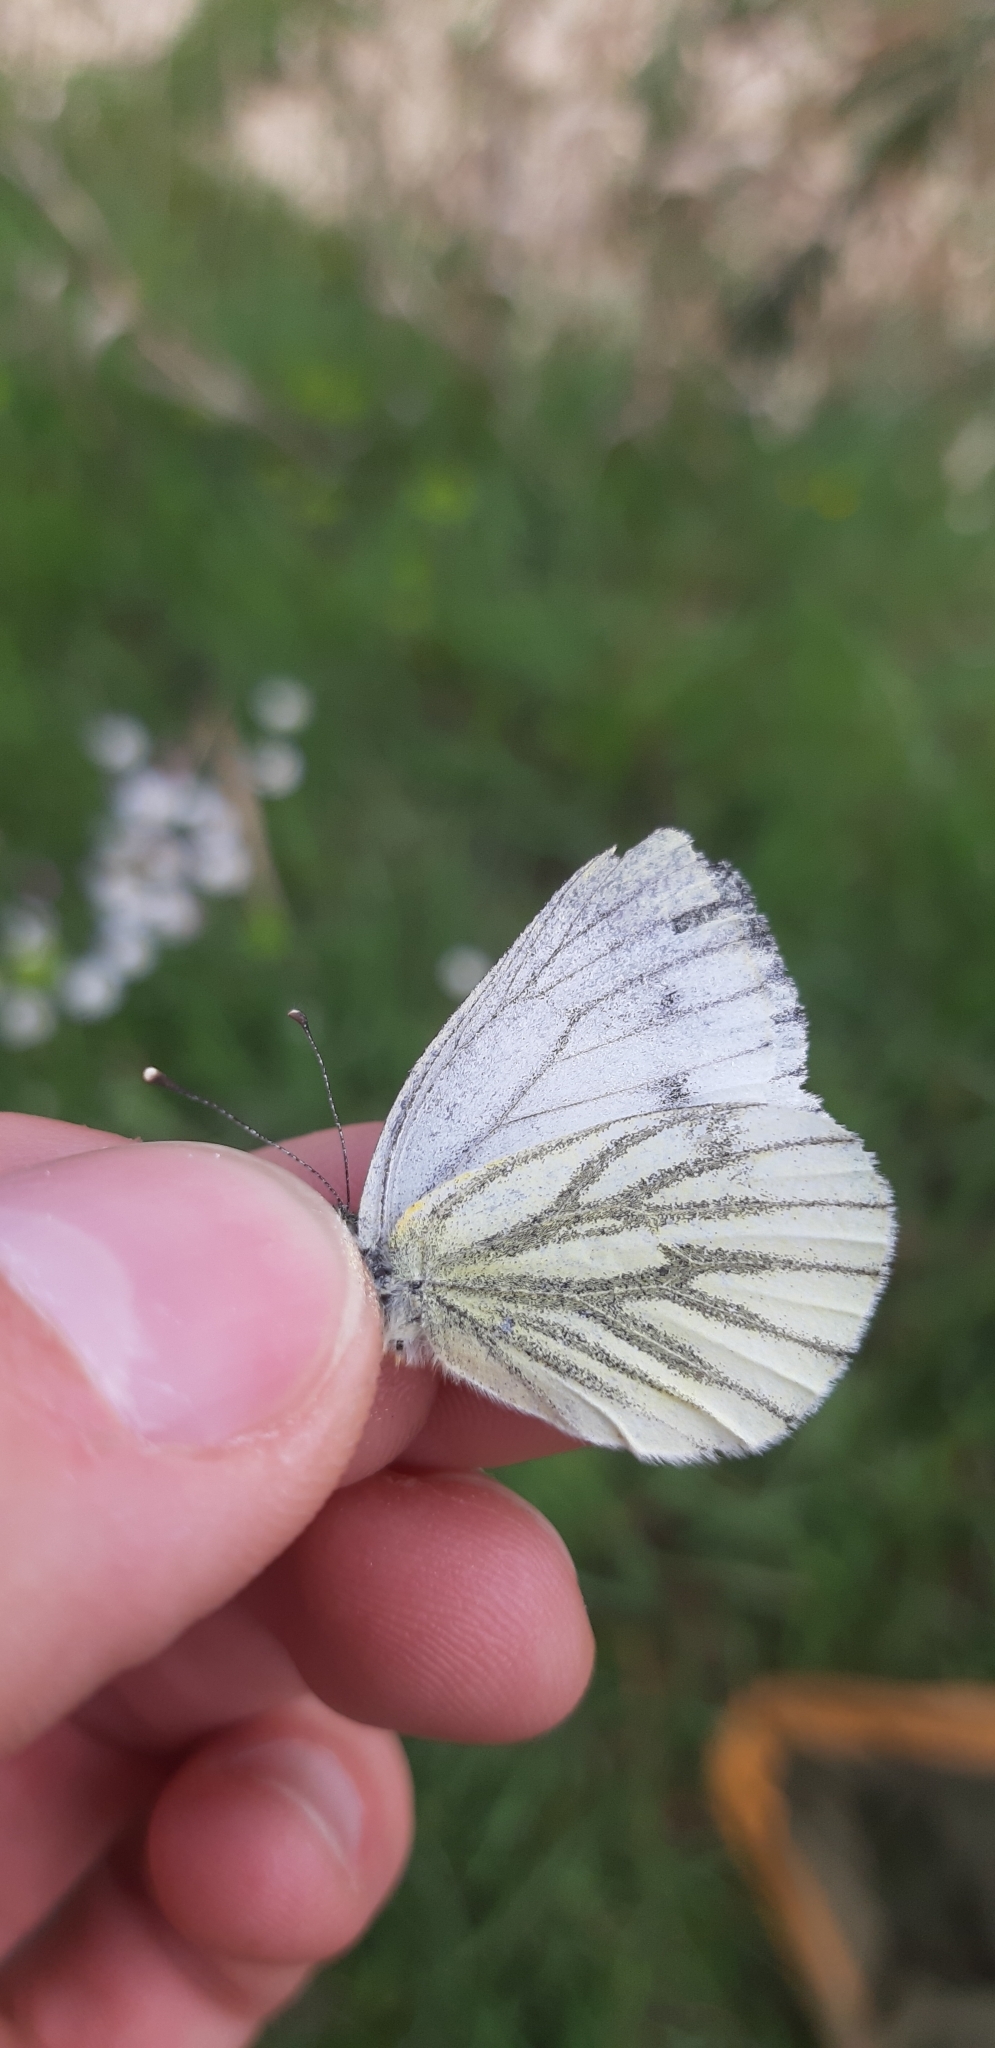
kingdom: Animalia
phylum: Arthropoda
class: Insecta
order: Lepidoptera
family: Pieridae
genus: Pieris
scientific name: Pieris napi
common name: Green-veined white
